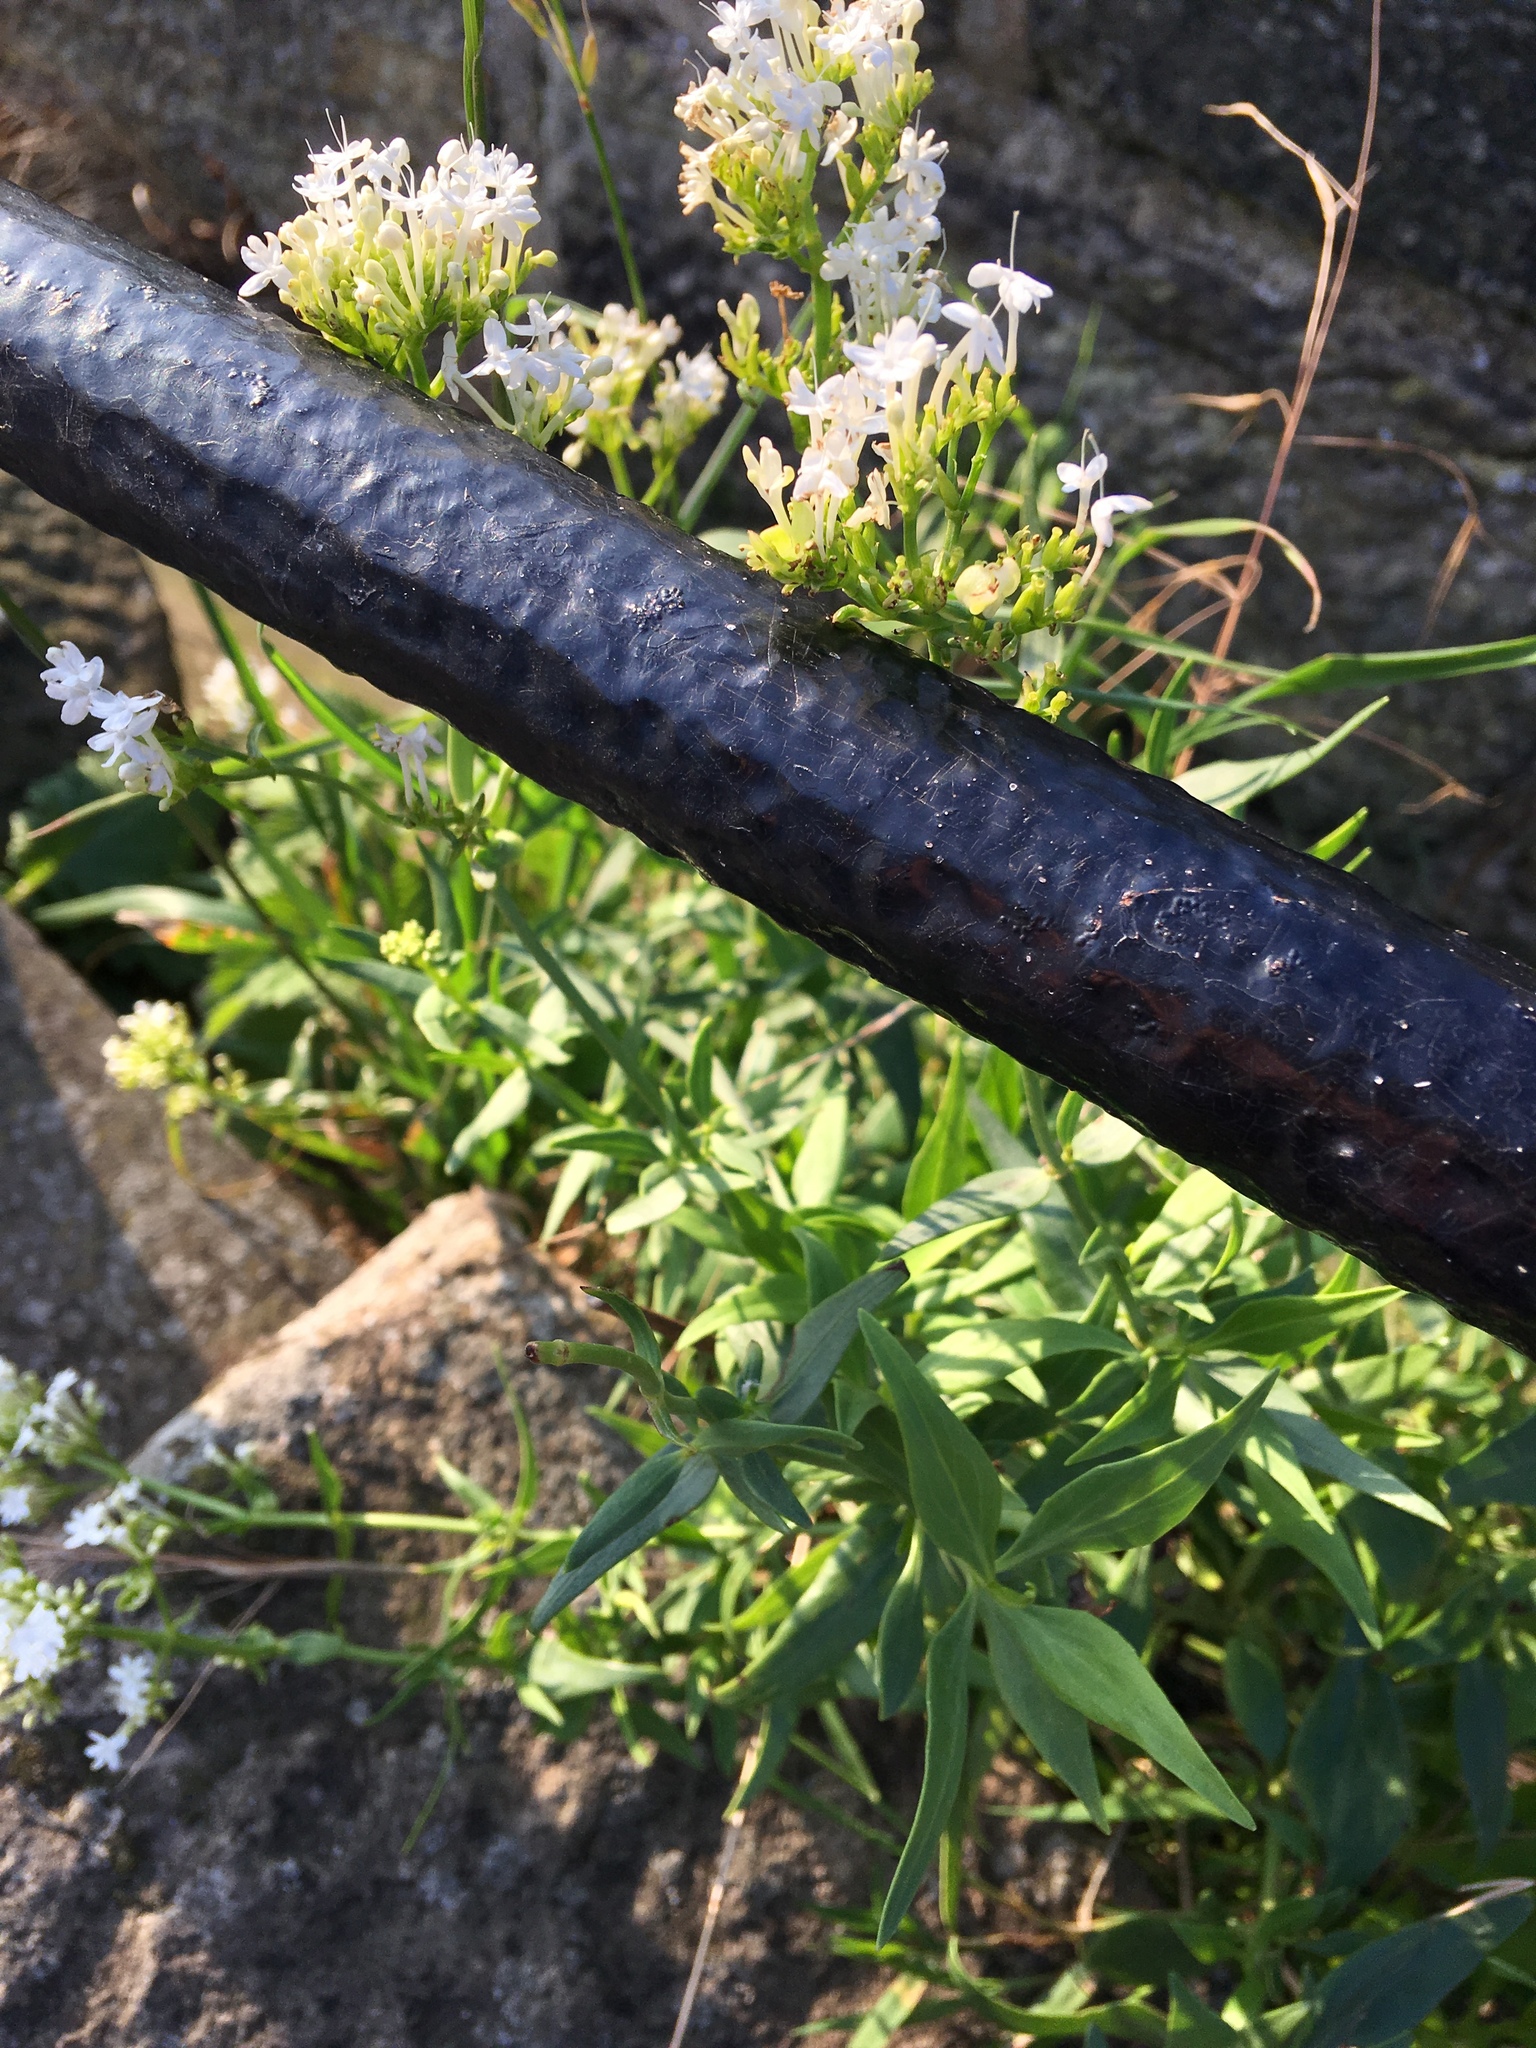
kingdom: Plantae
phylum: Tracheophyta
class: Magnoliopsida
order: Dipsacales
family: Caprifoliaceae
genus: Centranthus
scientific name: Centranthus ruber
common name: Red valerian
